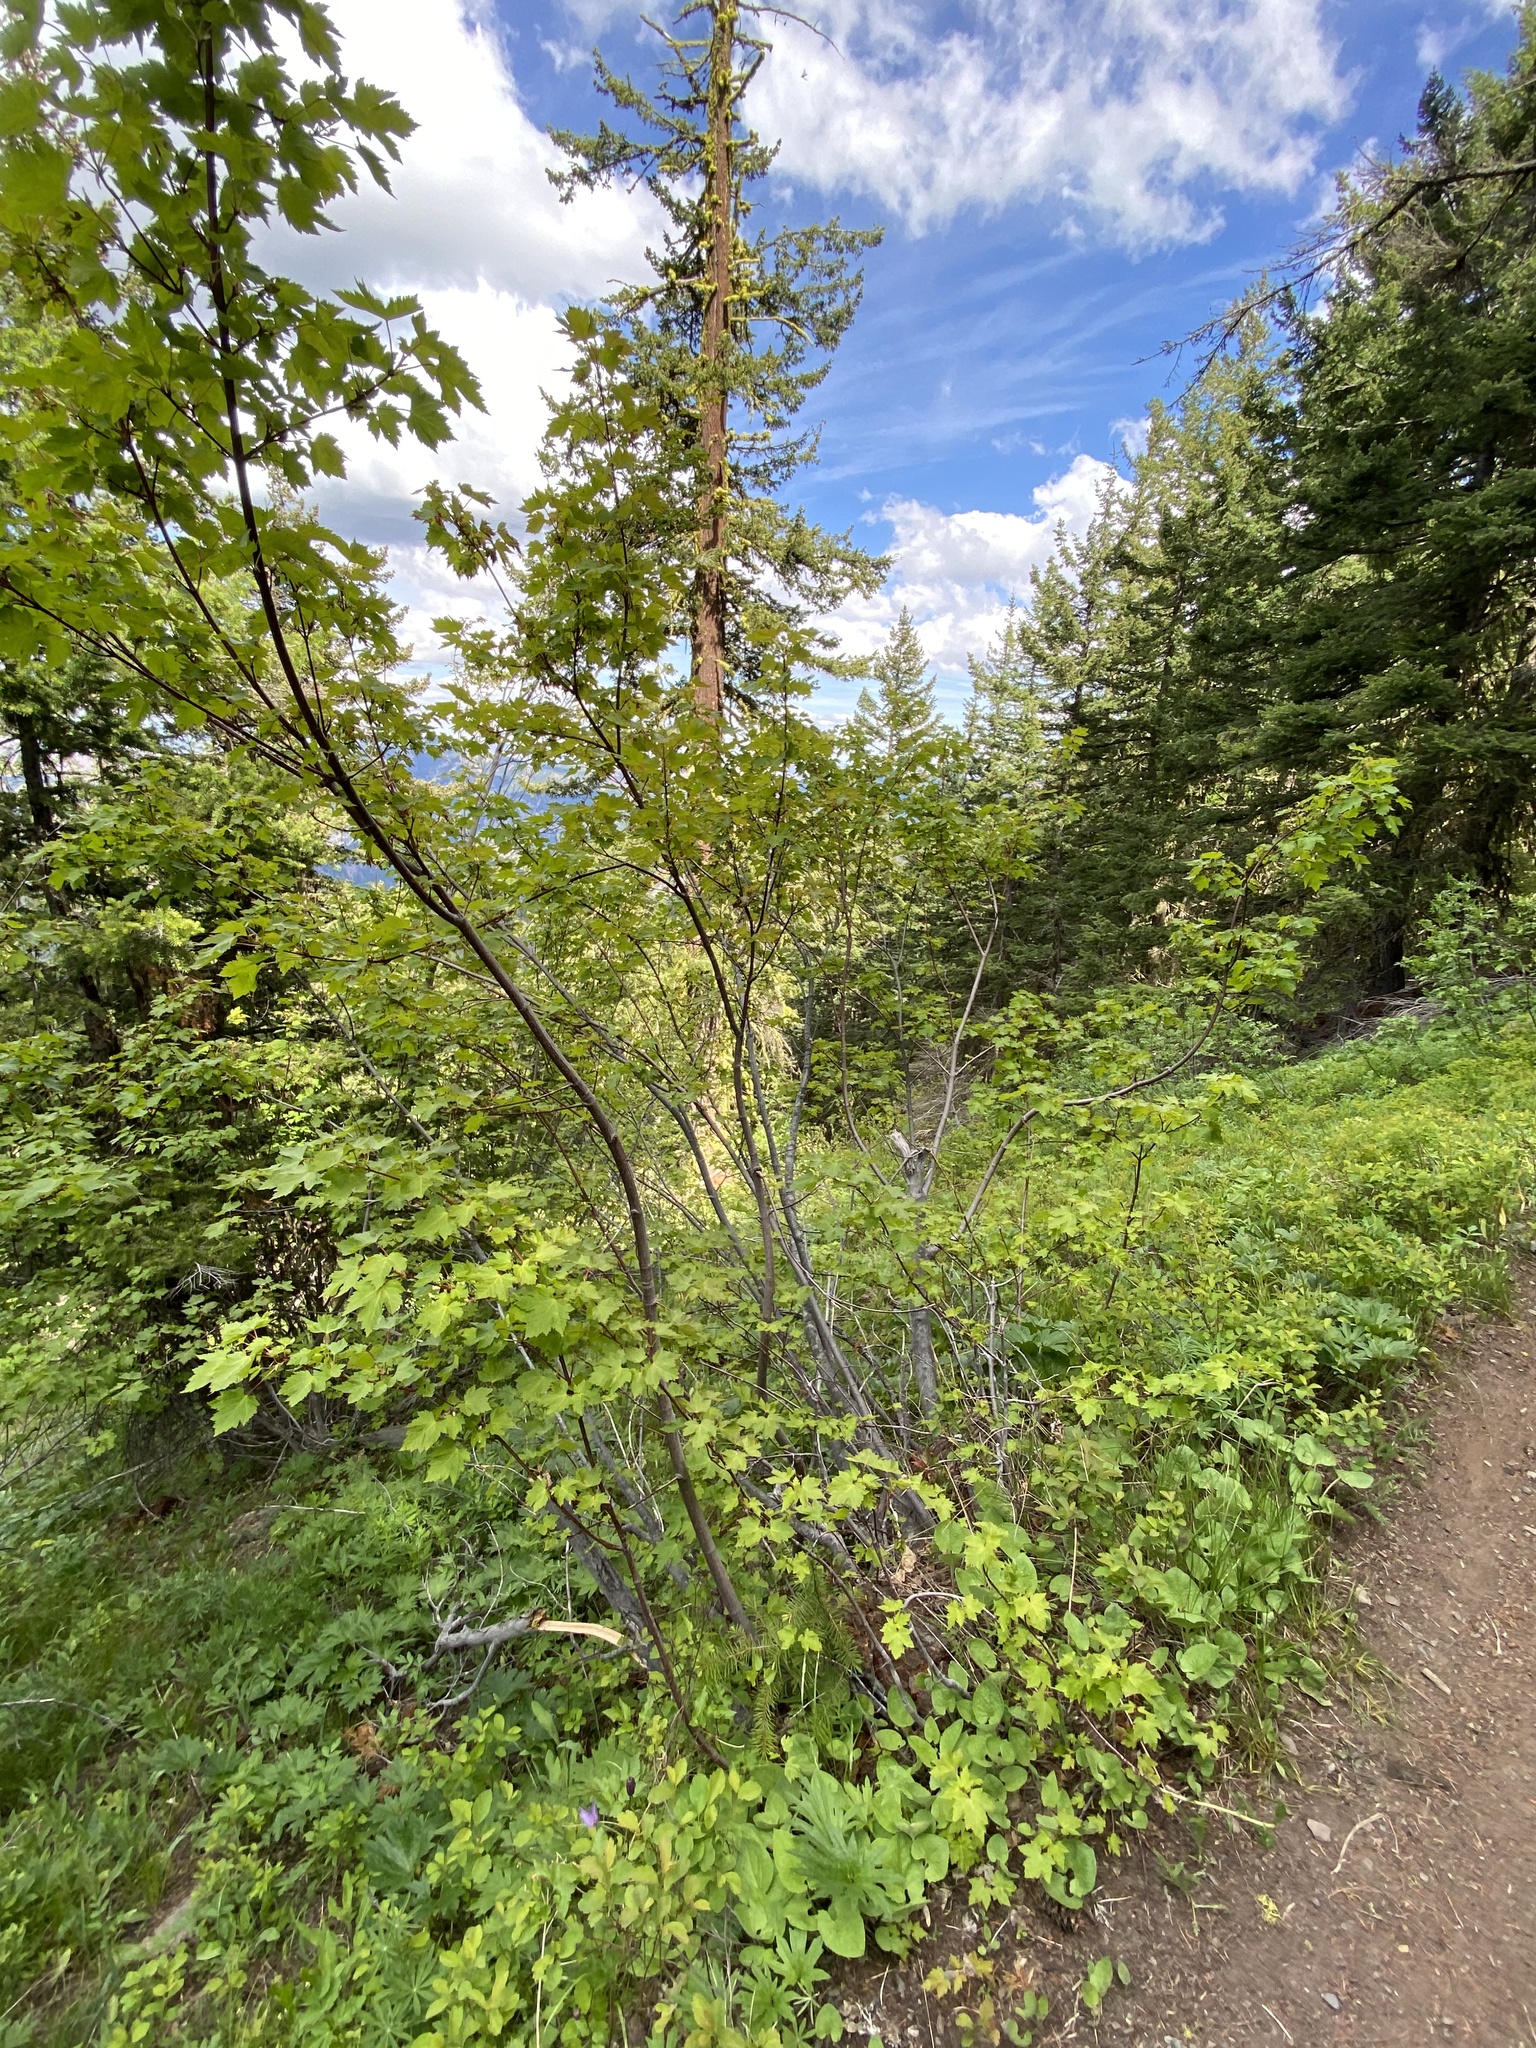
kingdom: Plantae
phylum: Tracheophyta
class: Magnoliopsida
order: Sapindales
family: Sapindaceae
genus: Acer
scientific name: Acer glabrum
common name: Rocky mountain maple
